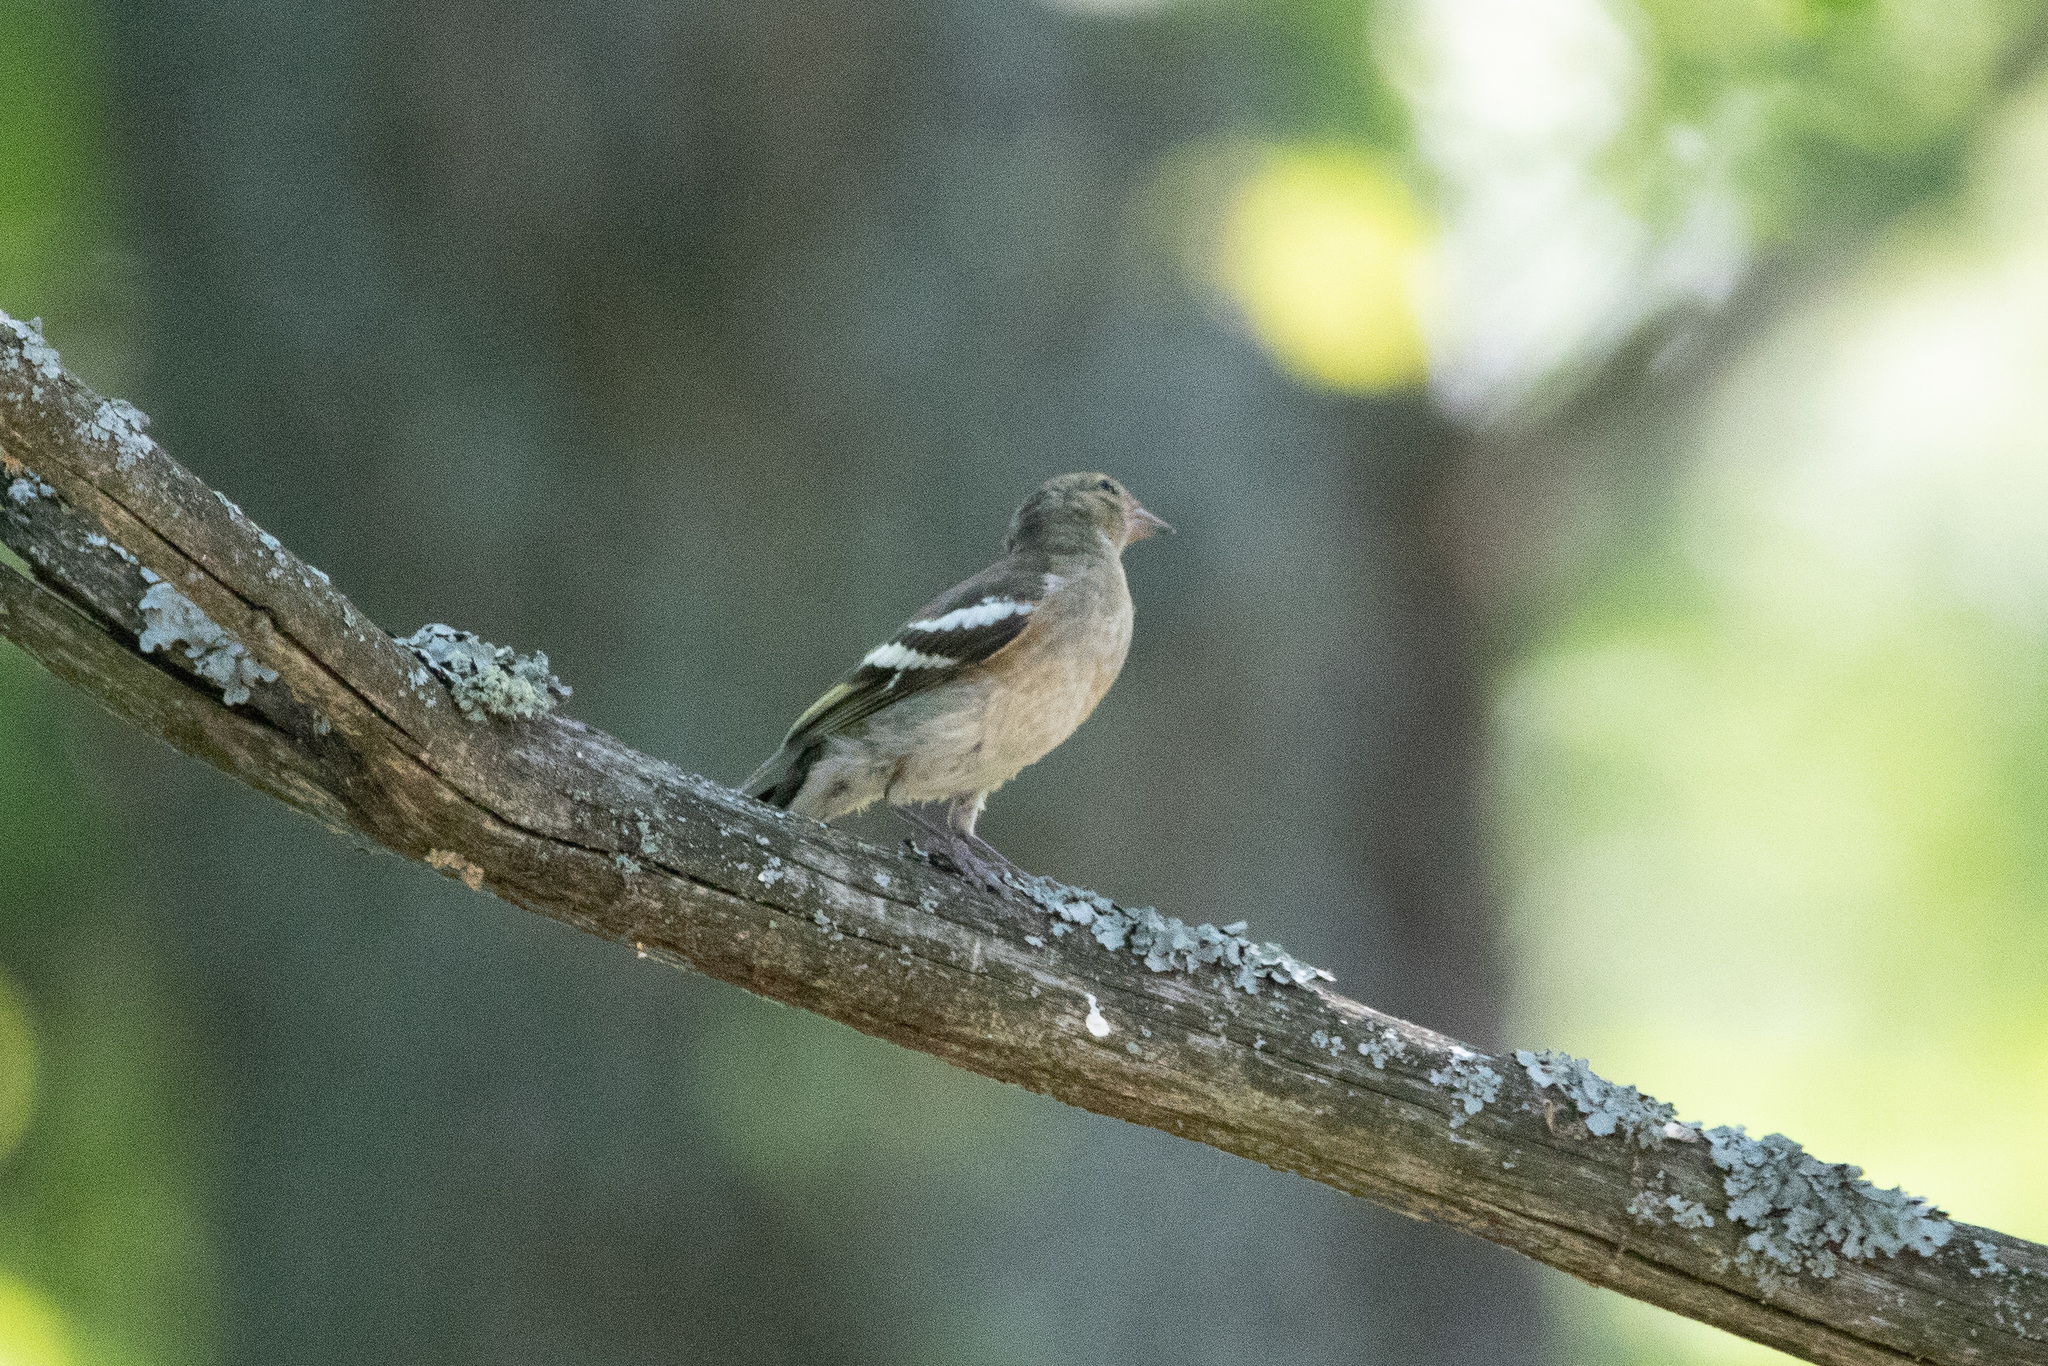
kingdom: Animalia
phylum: Chordata
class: Aves
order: Passeriformes
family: Fringillidae
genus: Fringilla
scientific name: Fringilla coelebs
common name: Common chaffinch
